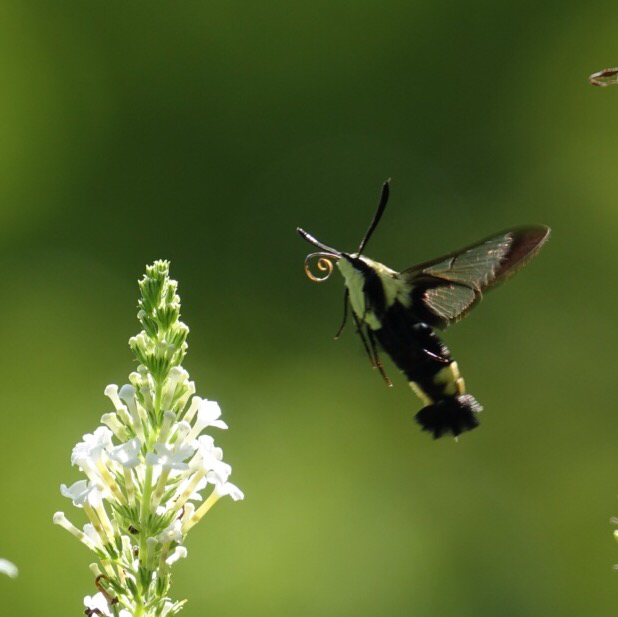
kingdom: Animalia
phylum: Arthropoda
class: Insecta
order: Lepidoptera
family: Sphingidae
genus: Hemaris
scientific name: Hemaris diffinis
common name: Bumblebee moth
